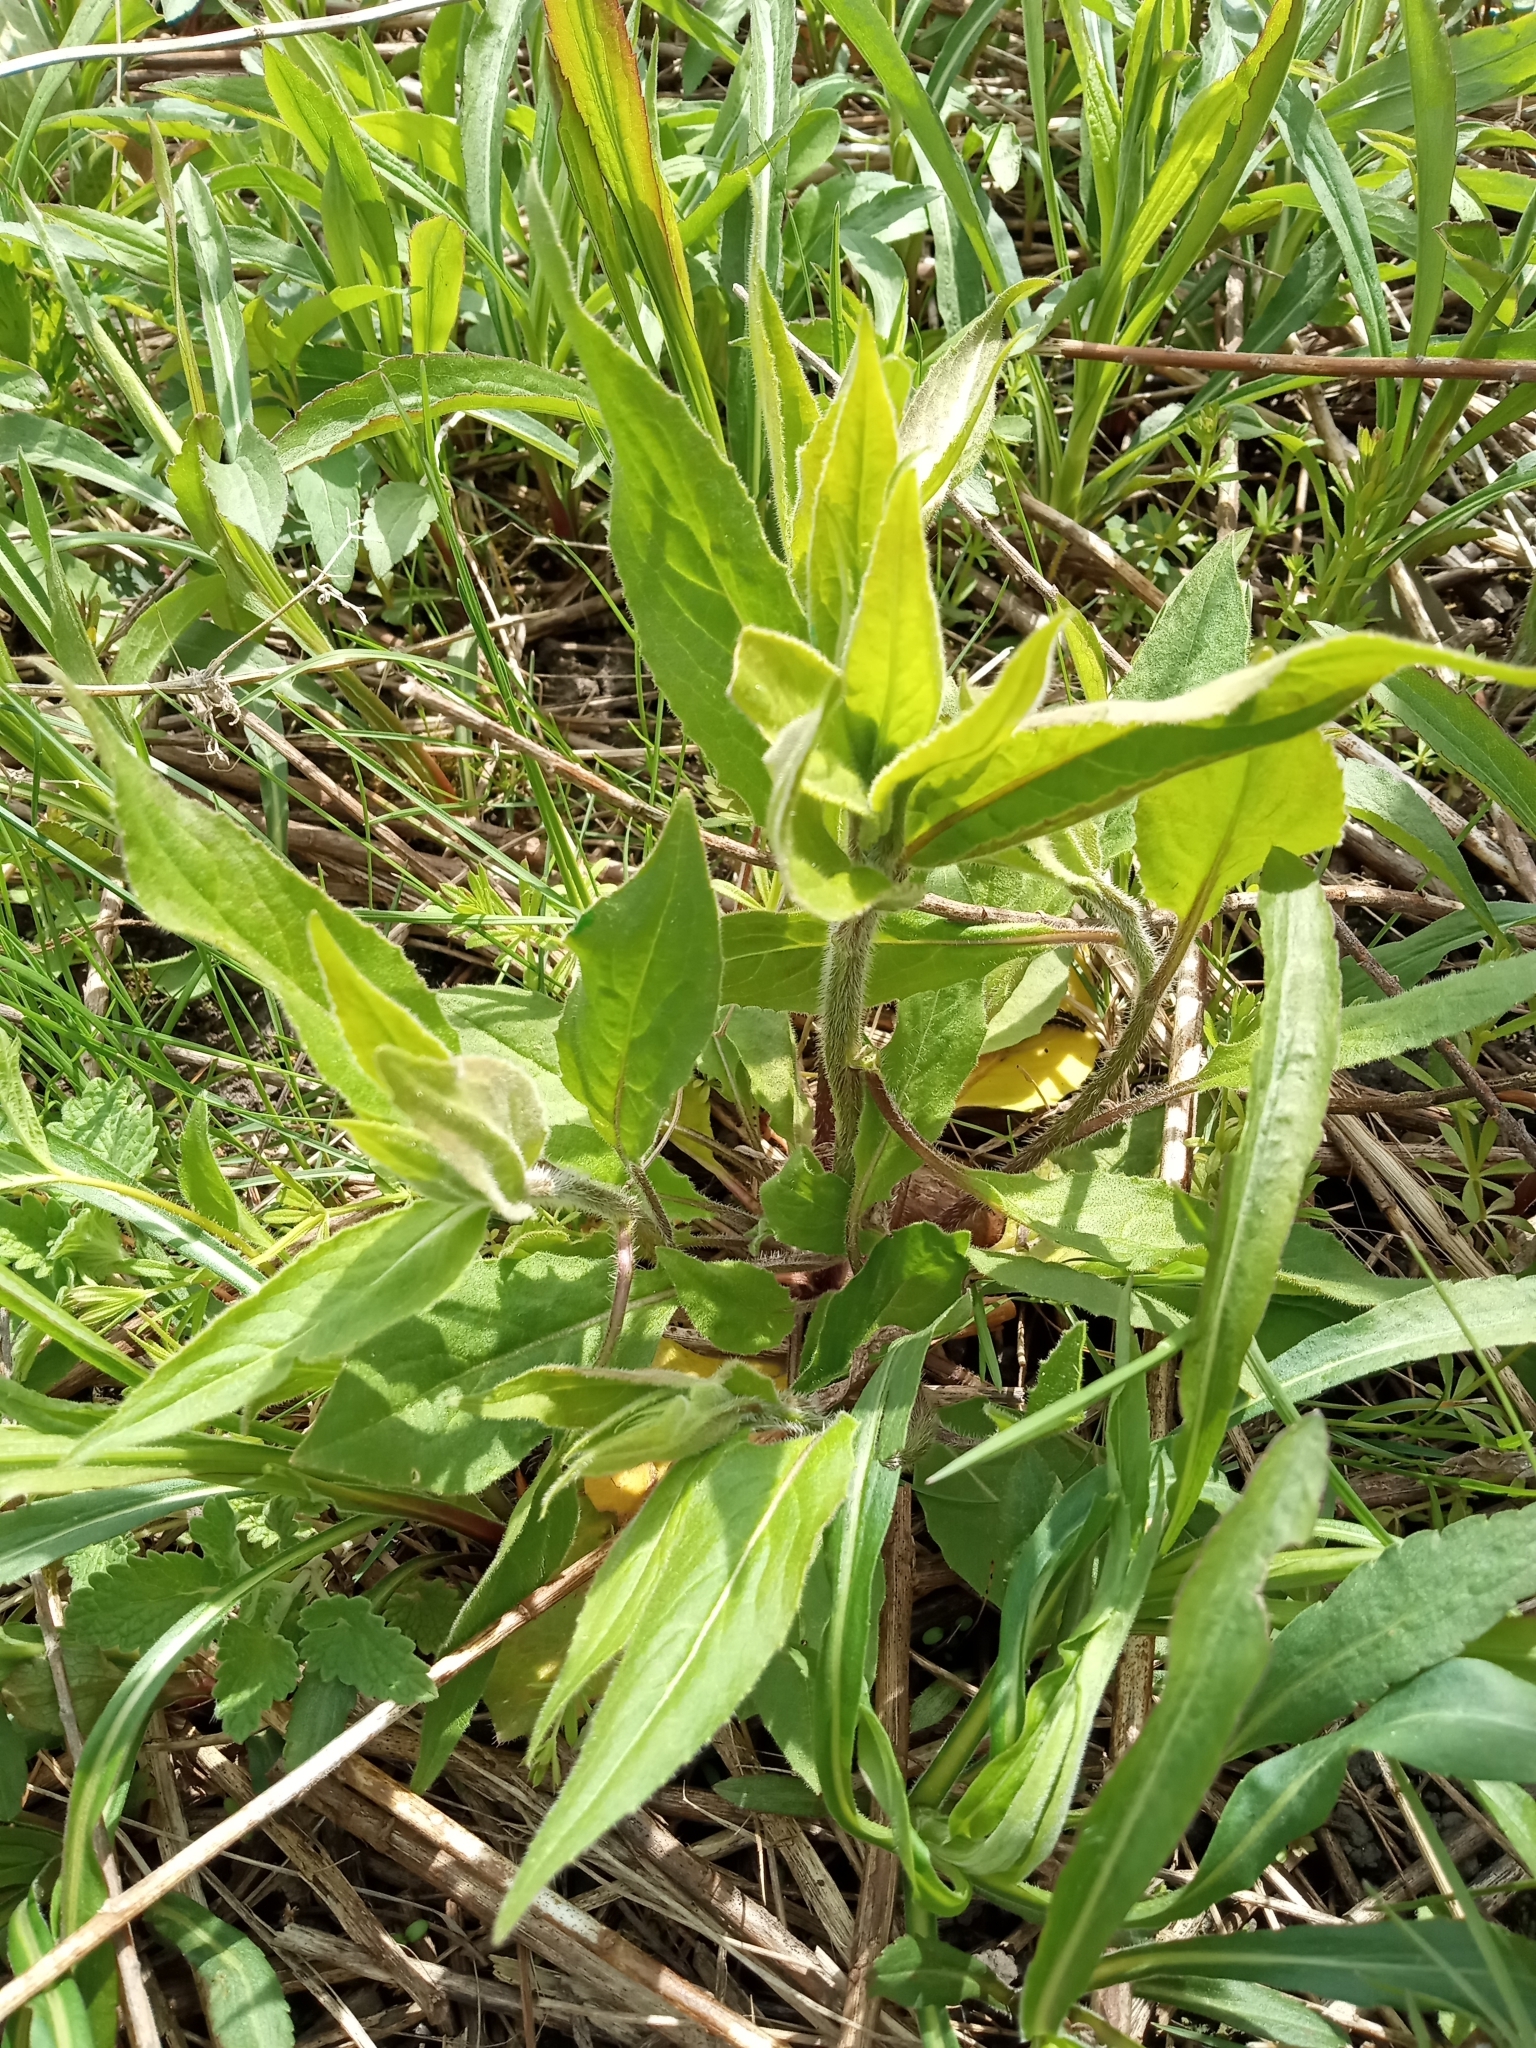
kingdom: Plantae
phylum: Tracheophyta
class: Magnoliopsida
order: Brassicales
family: Brassicaceae
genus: Hesperis
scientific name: Hesperis matronalis
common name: Dame's-violet
